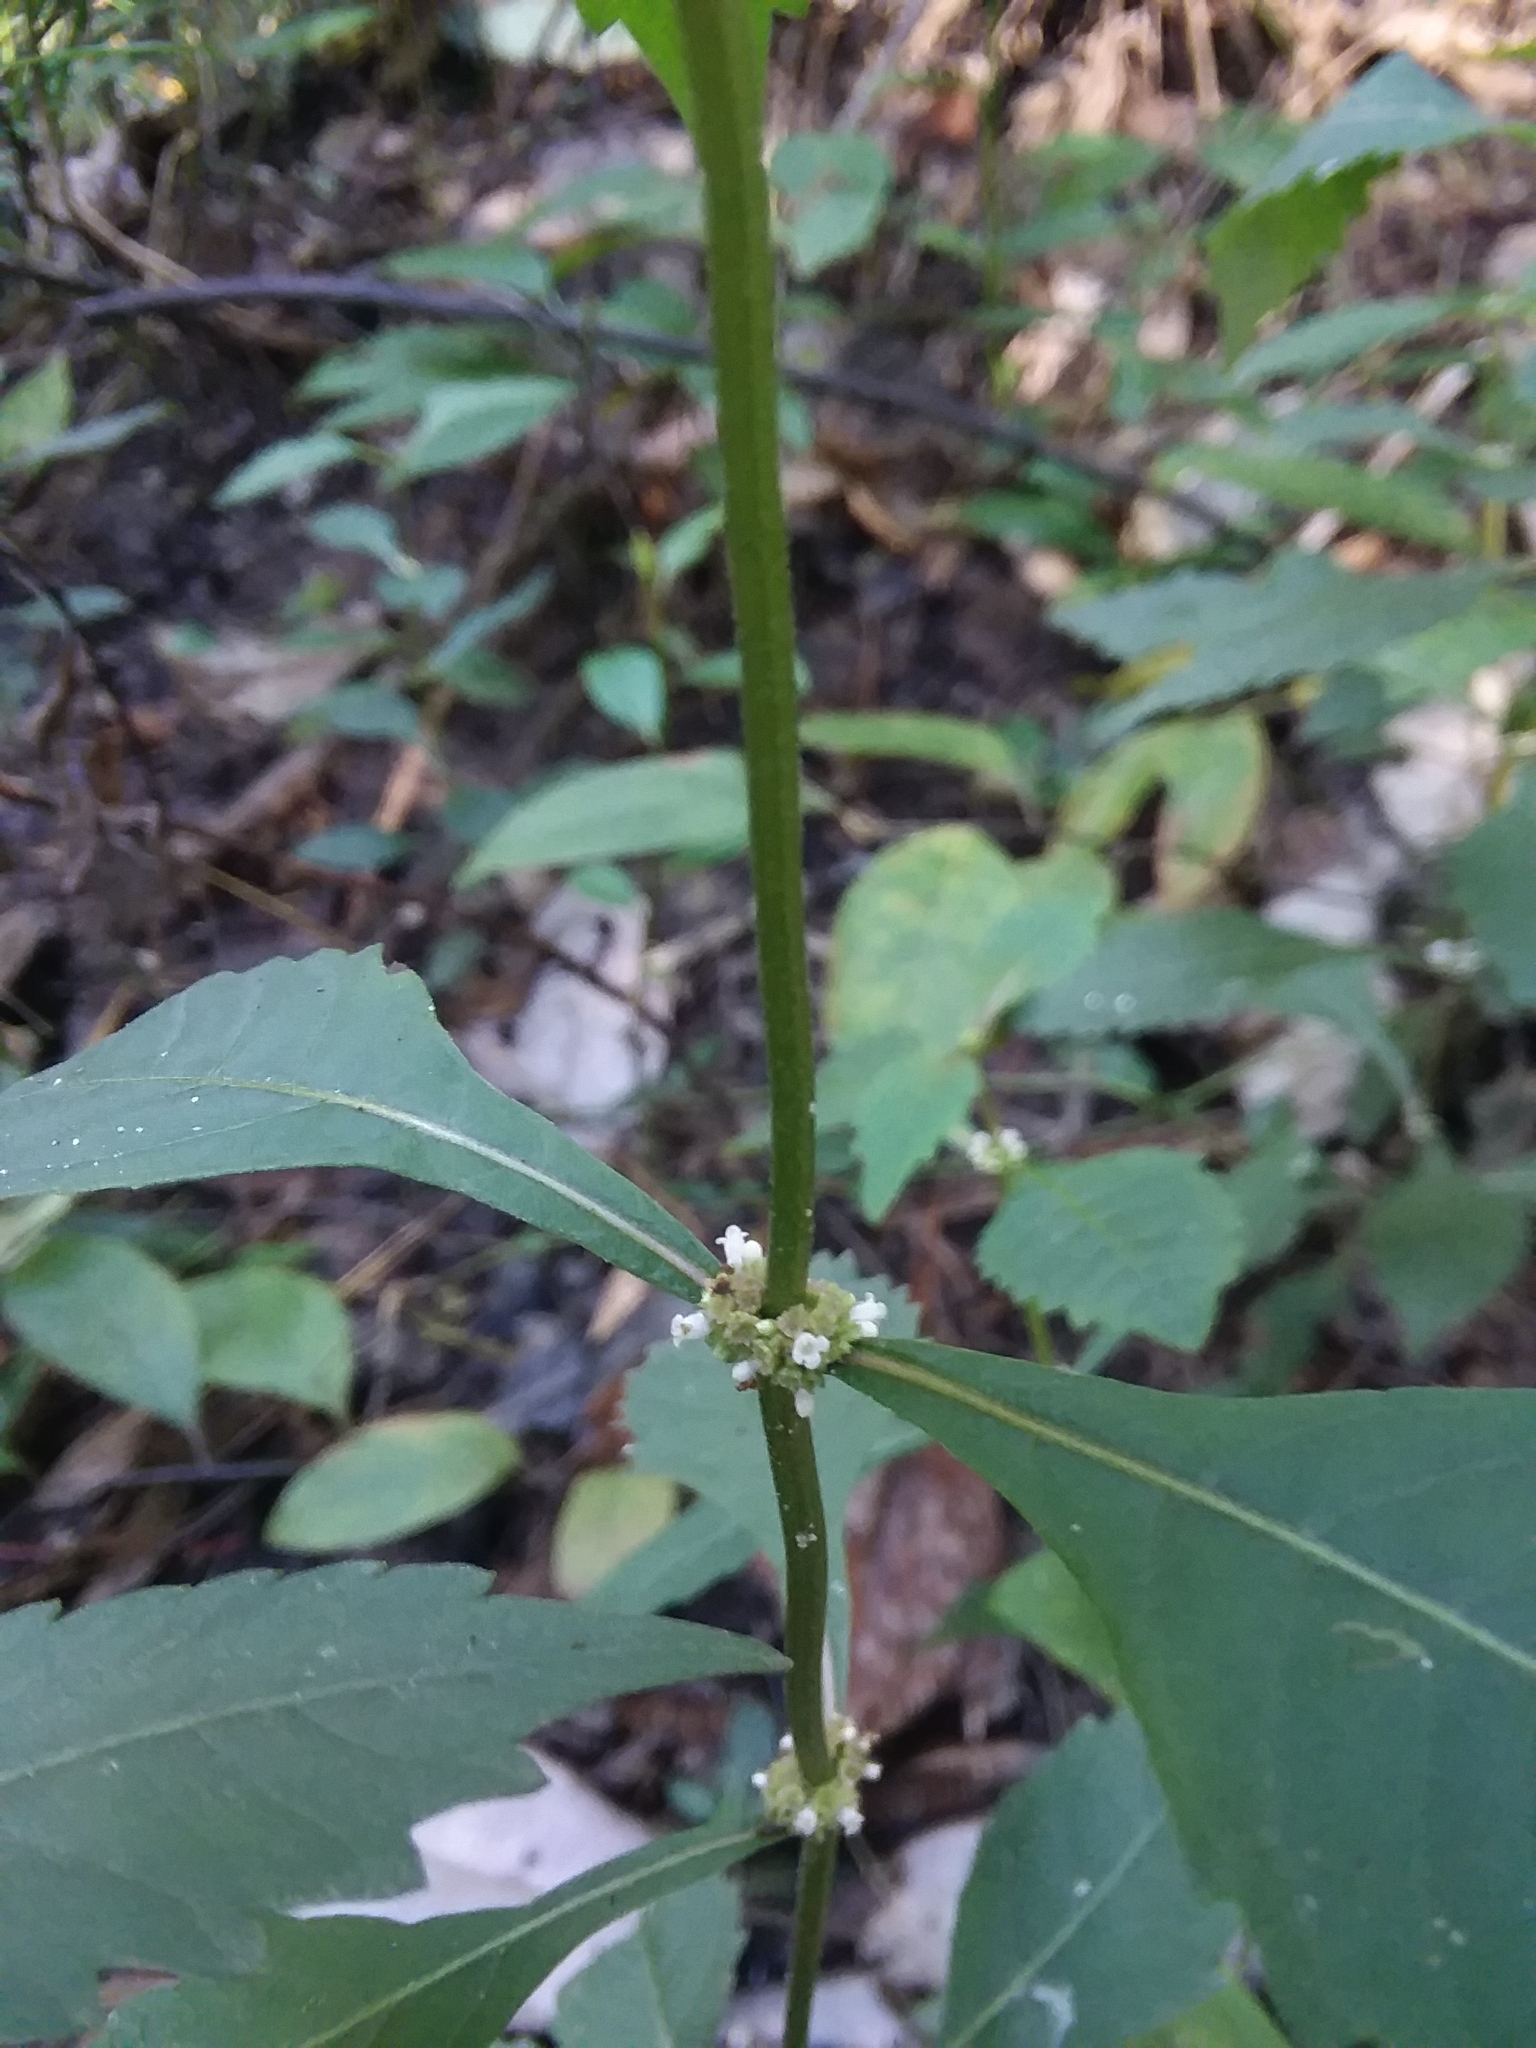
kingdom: Plantae
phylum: Tracheophyta
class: Magnoliopsida
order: Lamiales
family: Lamiaceae
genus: Lycopus
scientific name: Lycopus virginicus
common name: Bugleweed
